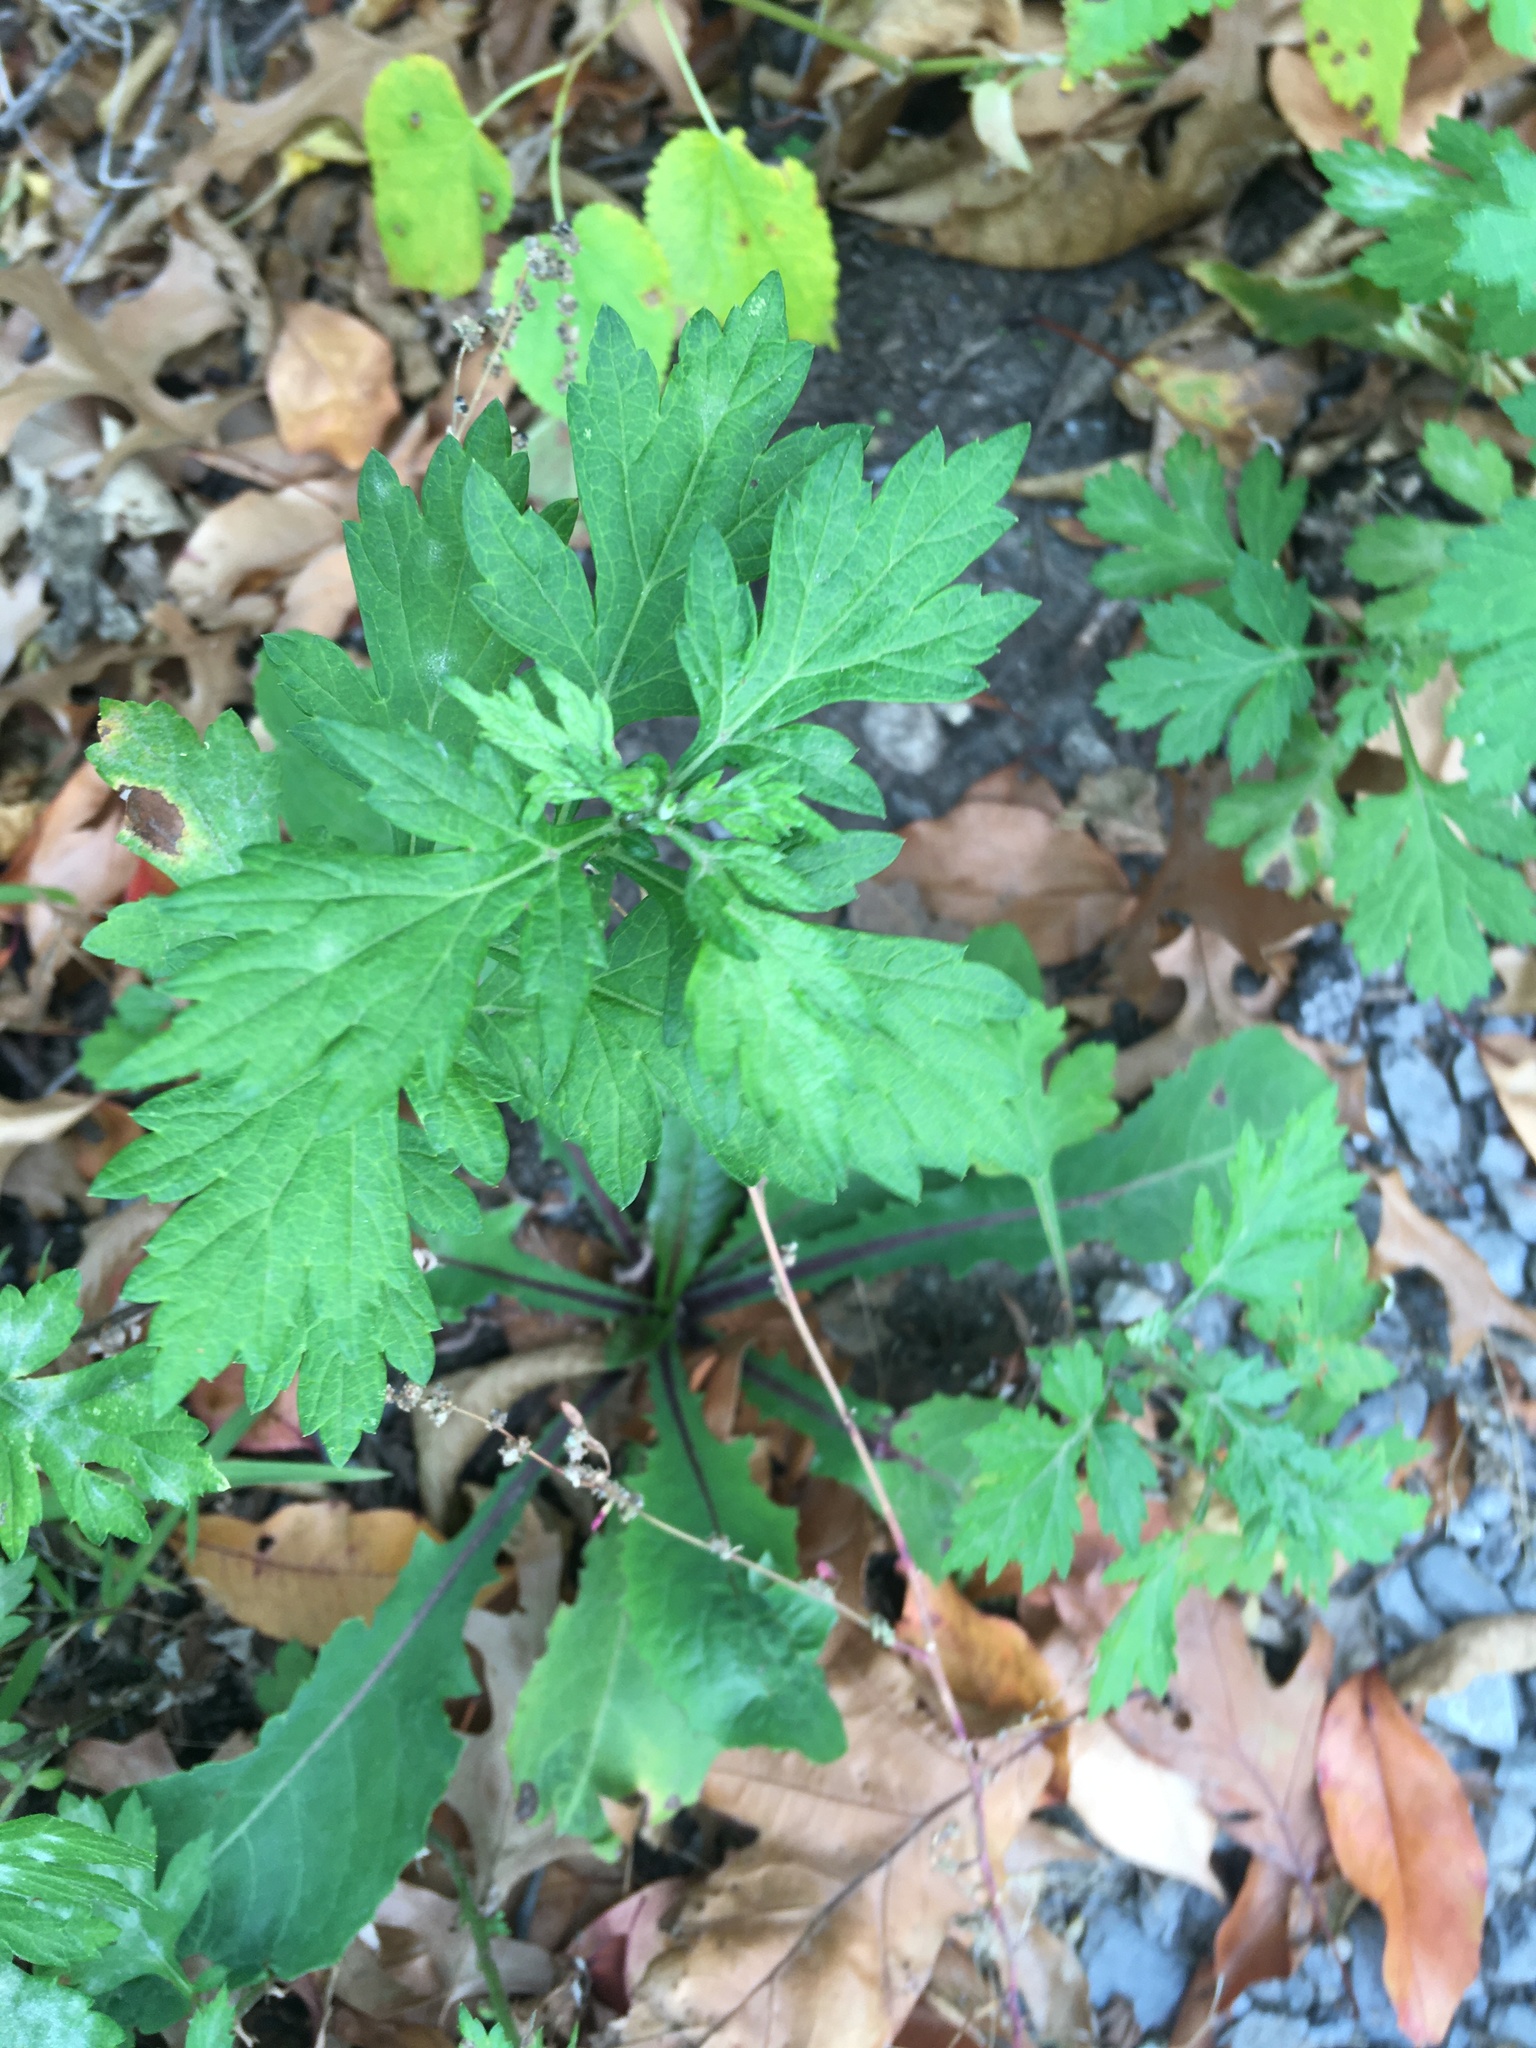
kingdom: Plantae
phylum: Tracheophyta
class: Magnoliopsida
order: Asterales
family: Asteraceae
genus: Artemisia
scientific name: Artemisia vulgaris
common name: Mugwort
